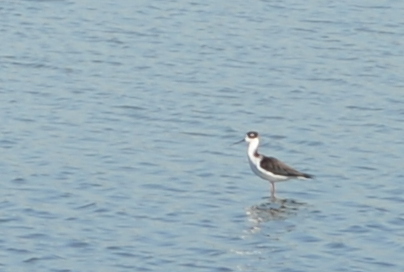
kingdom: Animalia
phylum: Chordata
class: Aves
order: Charadriiformes
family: Recurvirostridae
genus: Himantopus
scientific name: Himantopus mexicanus
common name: Black-necked stilt
